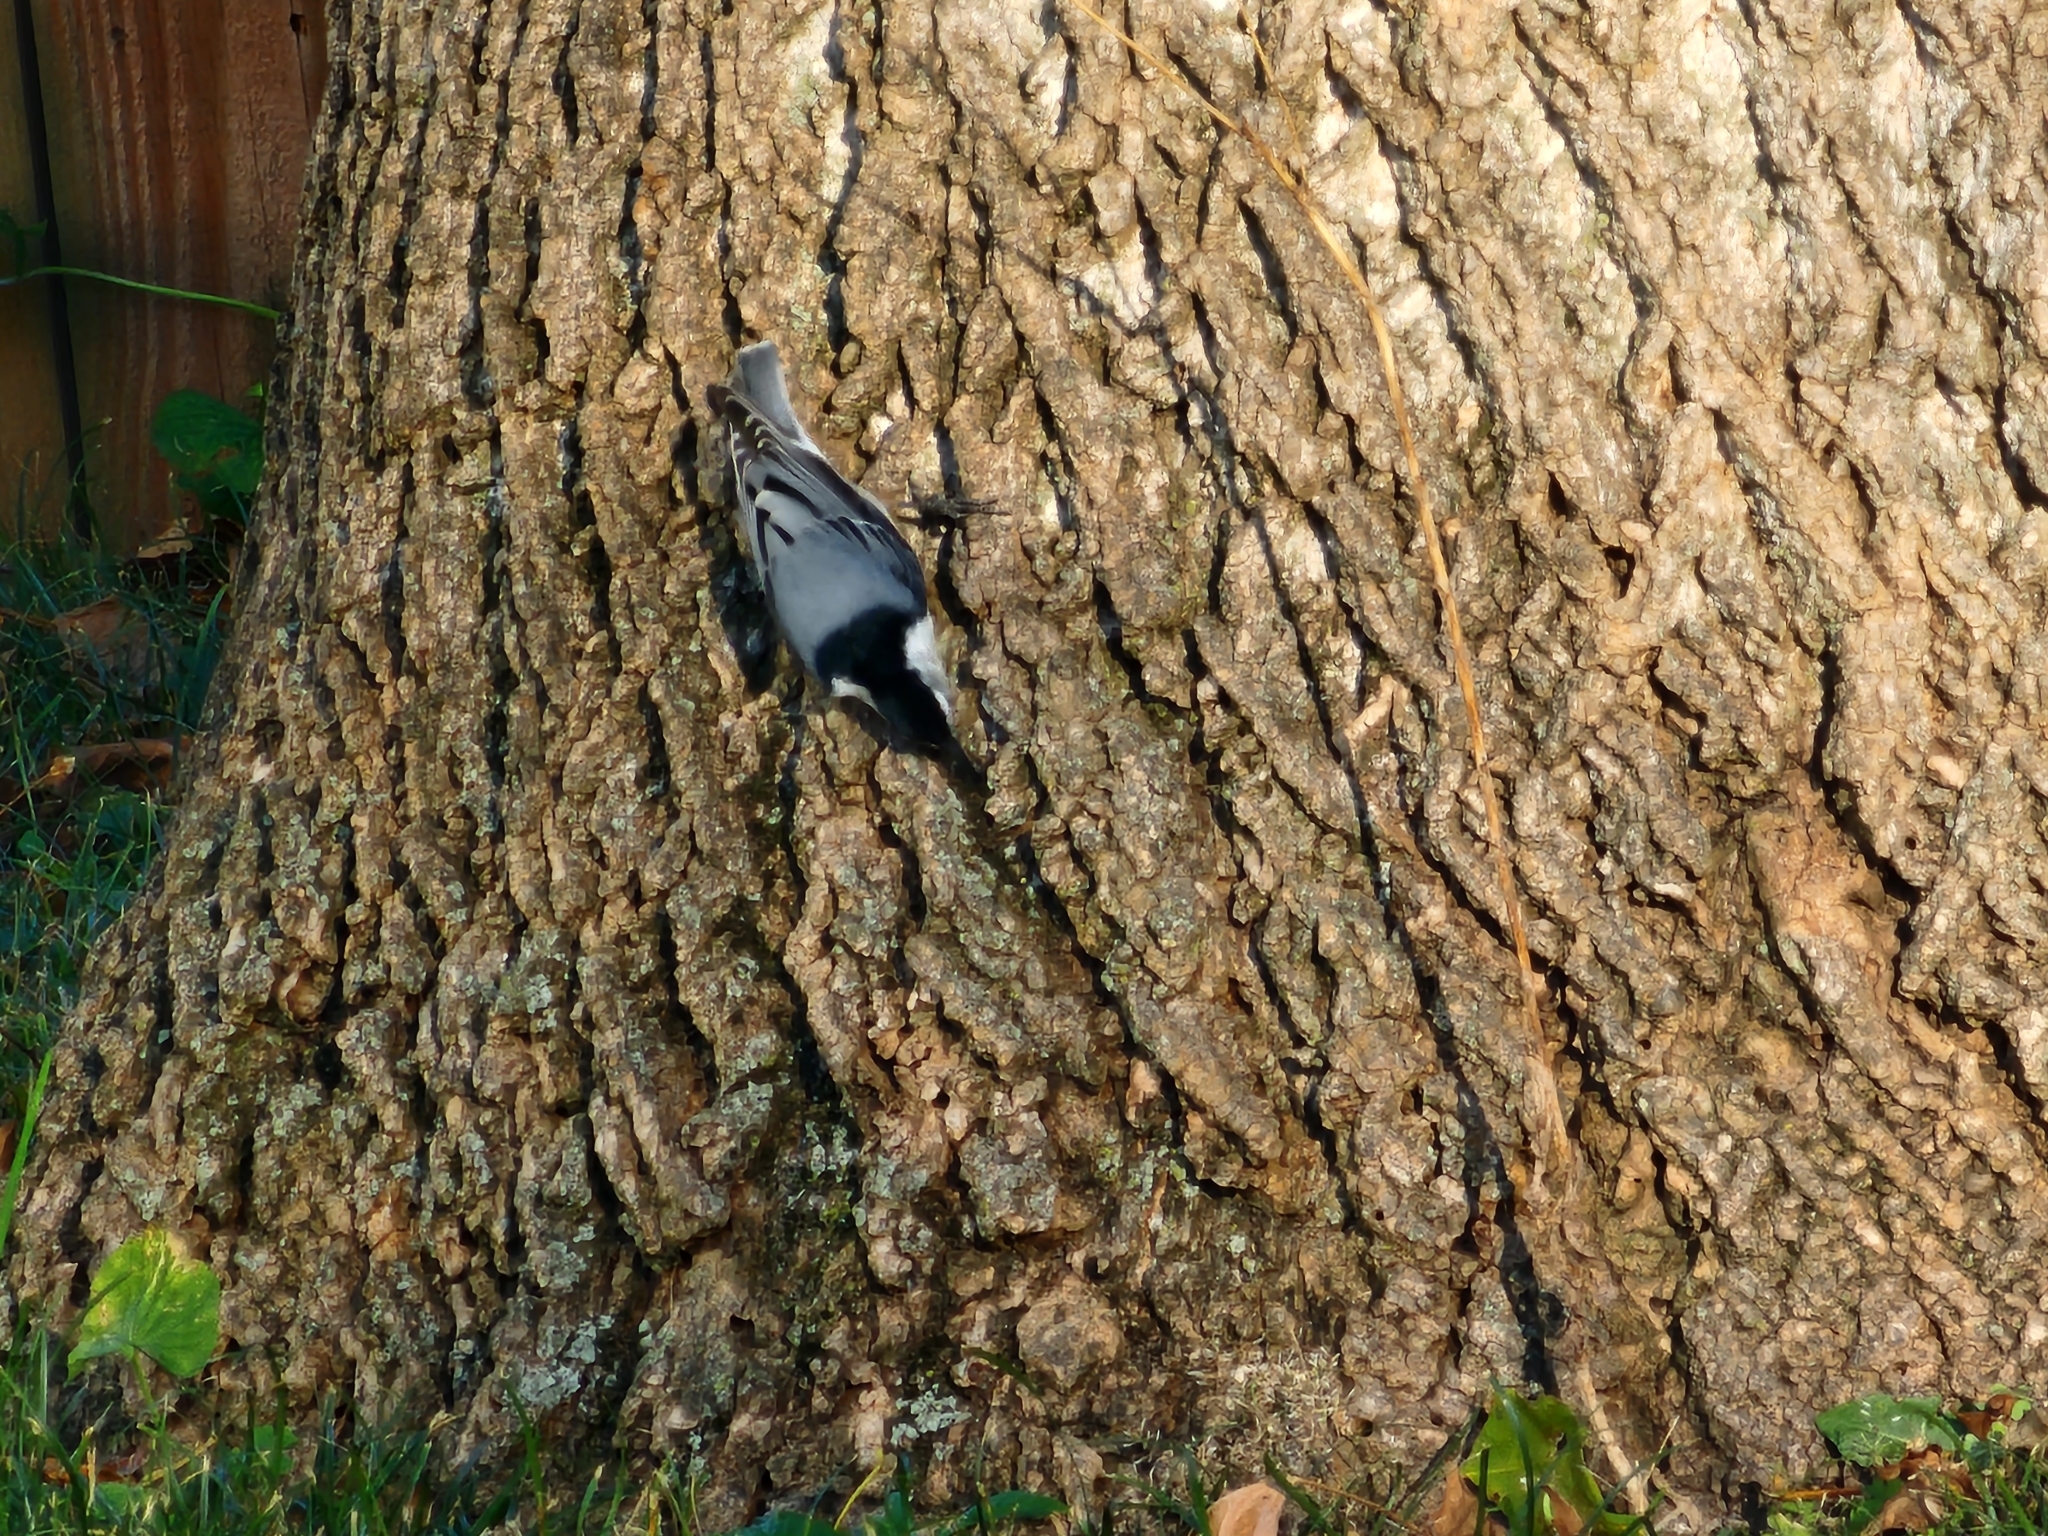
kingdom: Animalia
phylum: Chordata
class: Aves
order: Passeriformes
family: Sittidae
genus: Sitta
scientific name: Sitta carolinensis
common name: White-breasted nuthatch
